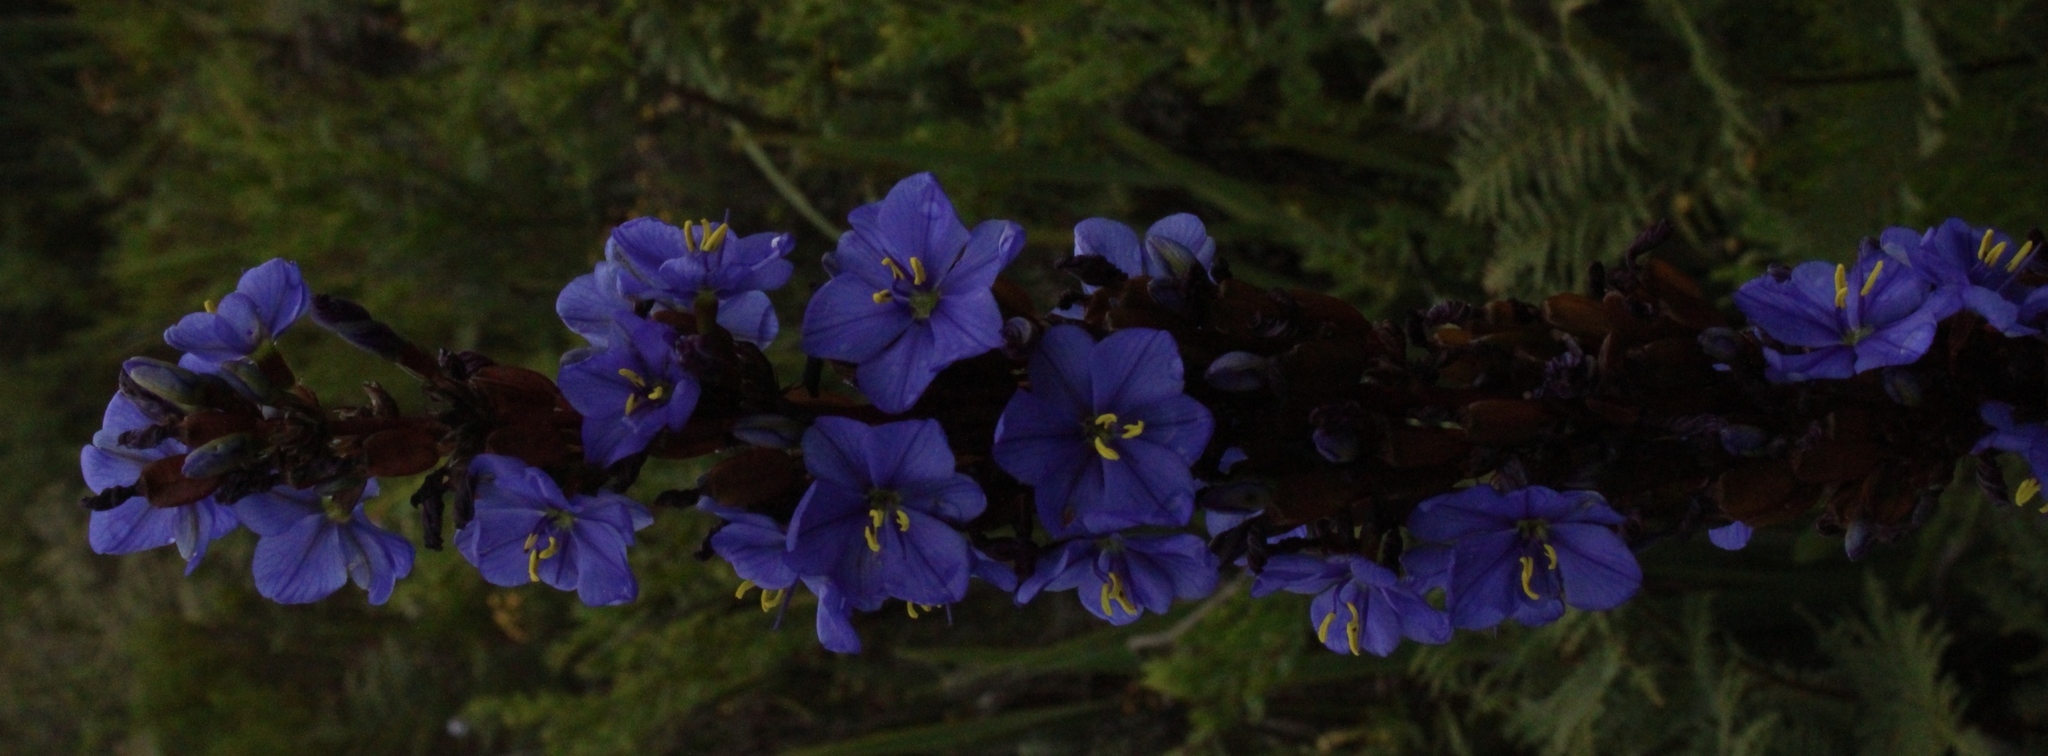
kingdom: Plantae
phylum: Tracheophyta
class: Liliopsida
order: Asparagales
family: Iridaceae
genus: Aristea
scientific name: Aristea bakeri
